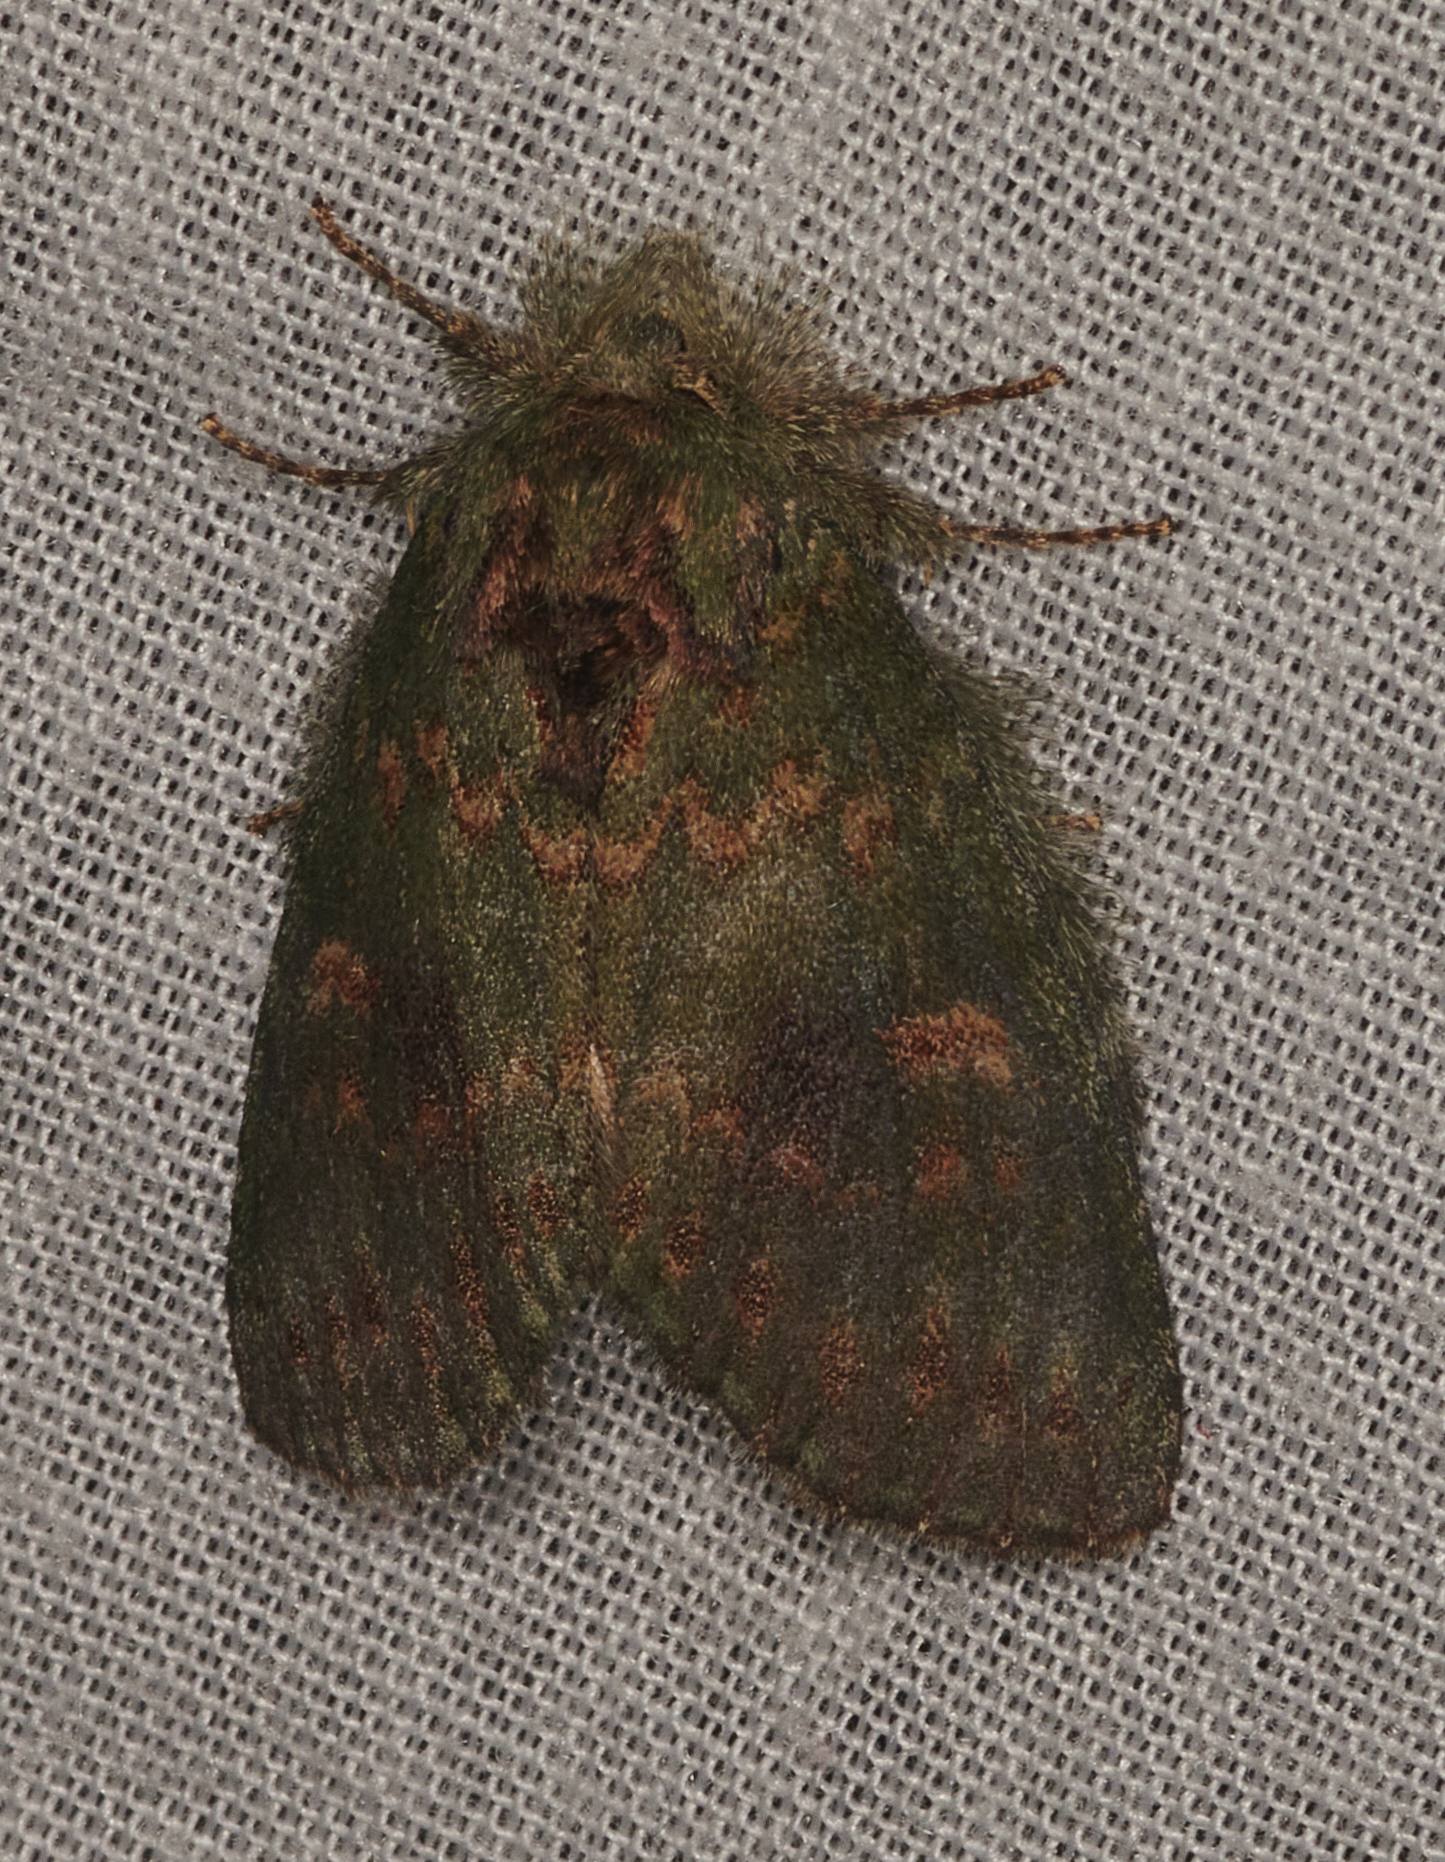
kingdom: Animalia
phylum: Arthropoda
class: Insecta
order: Lepidoptera
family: Notodontidae
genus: Disphragis
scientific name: Disphragis Cecrita biundata
